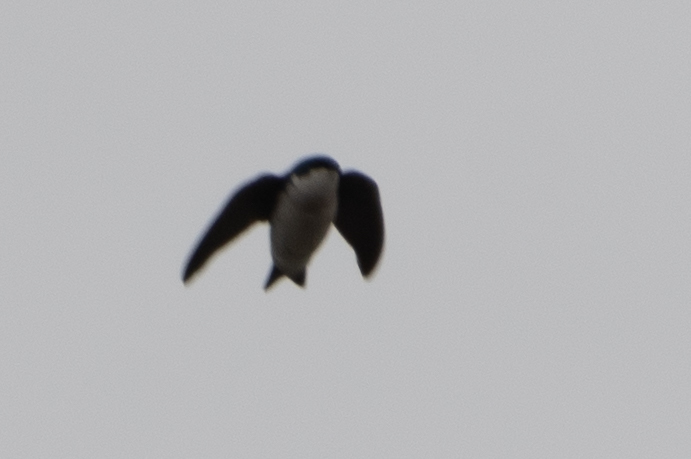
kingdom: Animalia
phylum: Chordata
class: Aves
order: Passeriformes
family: Hirundinidae
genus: Tachycineta
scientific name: Tachycineta bicolor
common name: Tree swallow
